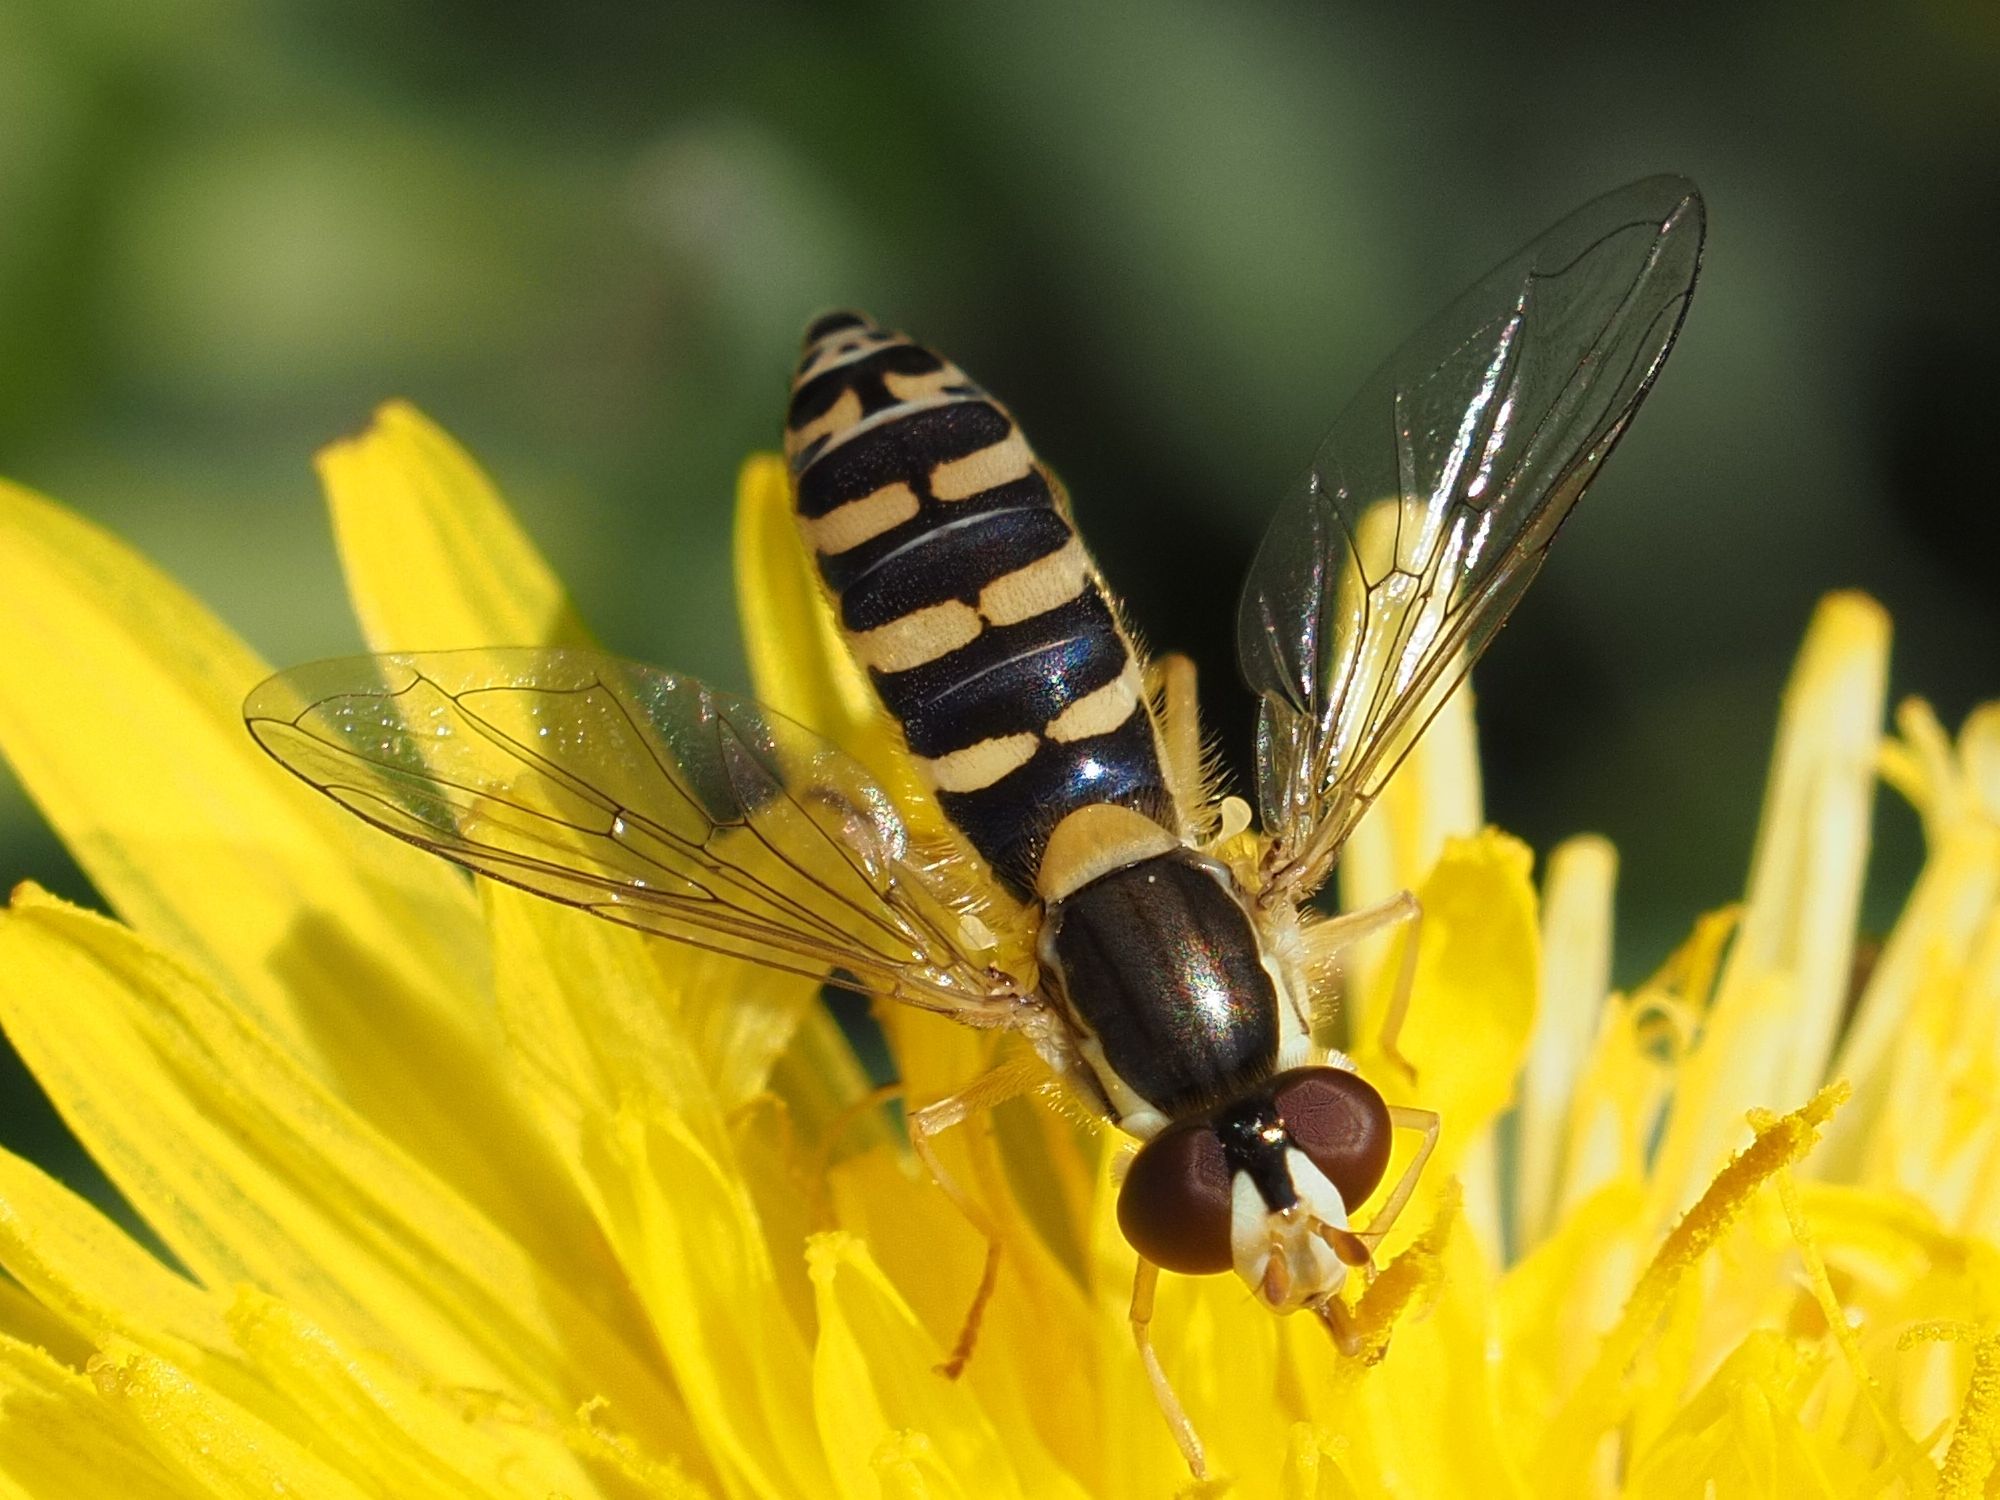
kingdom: Animalia
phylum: Arthropoda
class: Insecta
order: Diptera
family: Syrphidae
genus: Sphaerophoria
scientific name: Sphaerophoria
